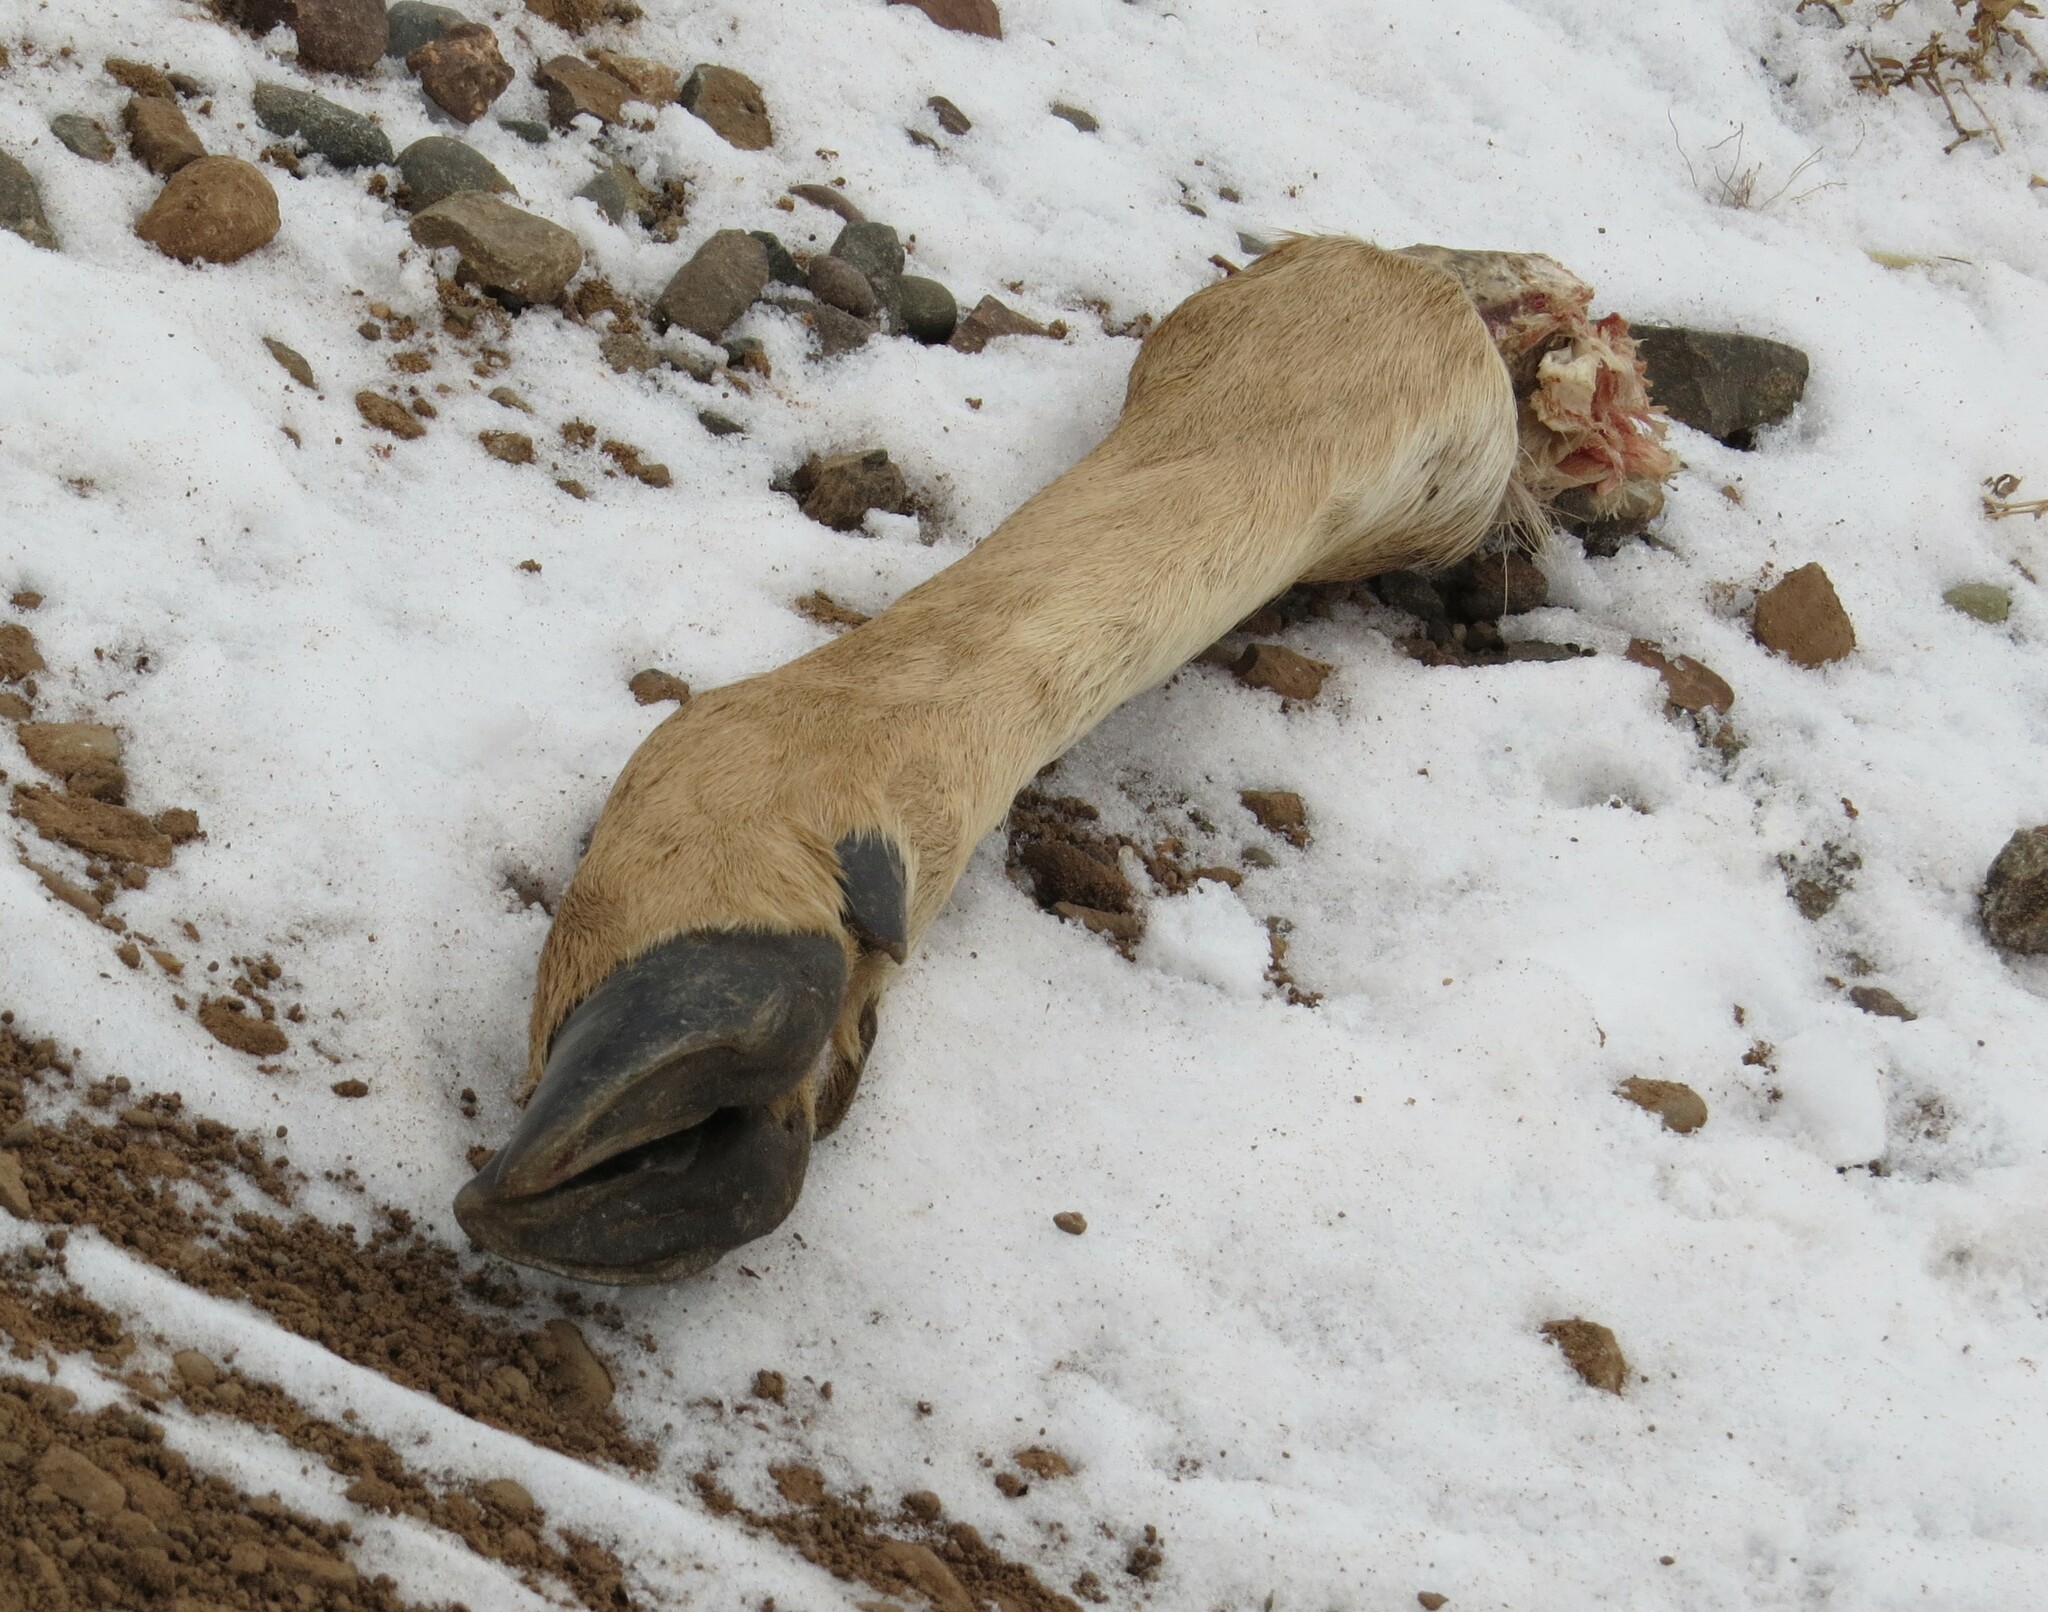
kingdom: Animalia
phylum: Chordata
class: Mammalia
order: Artiodactyla
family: Cervidae
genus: Odocoileus
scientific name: Odocoileus virginianus
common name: White-tailed deer
